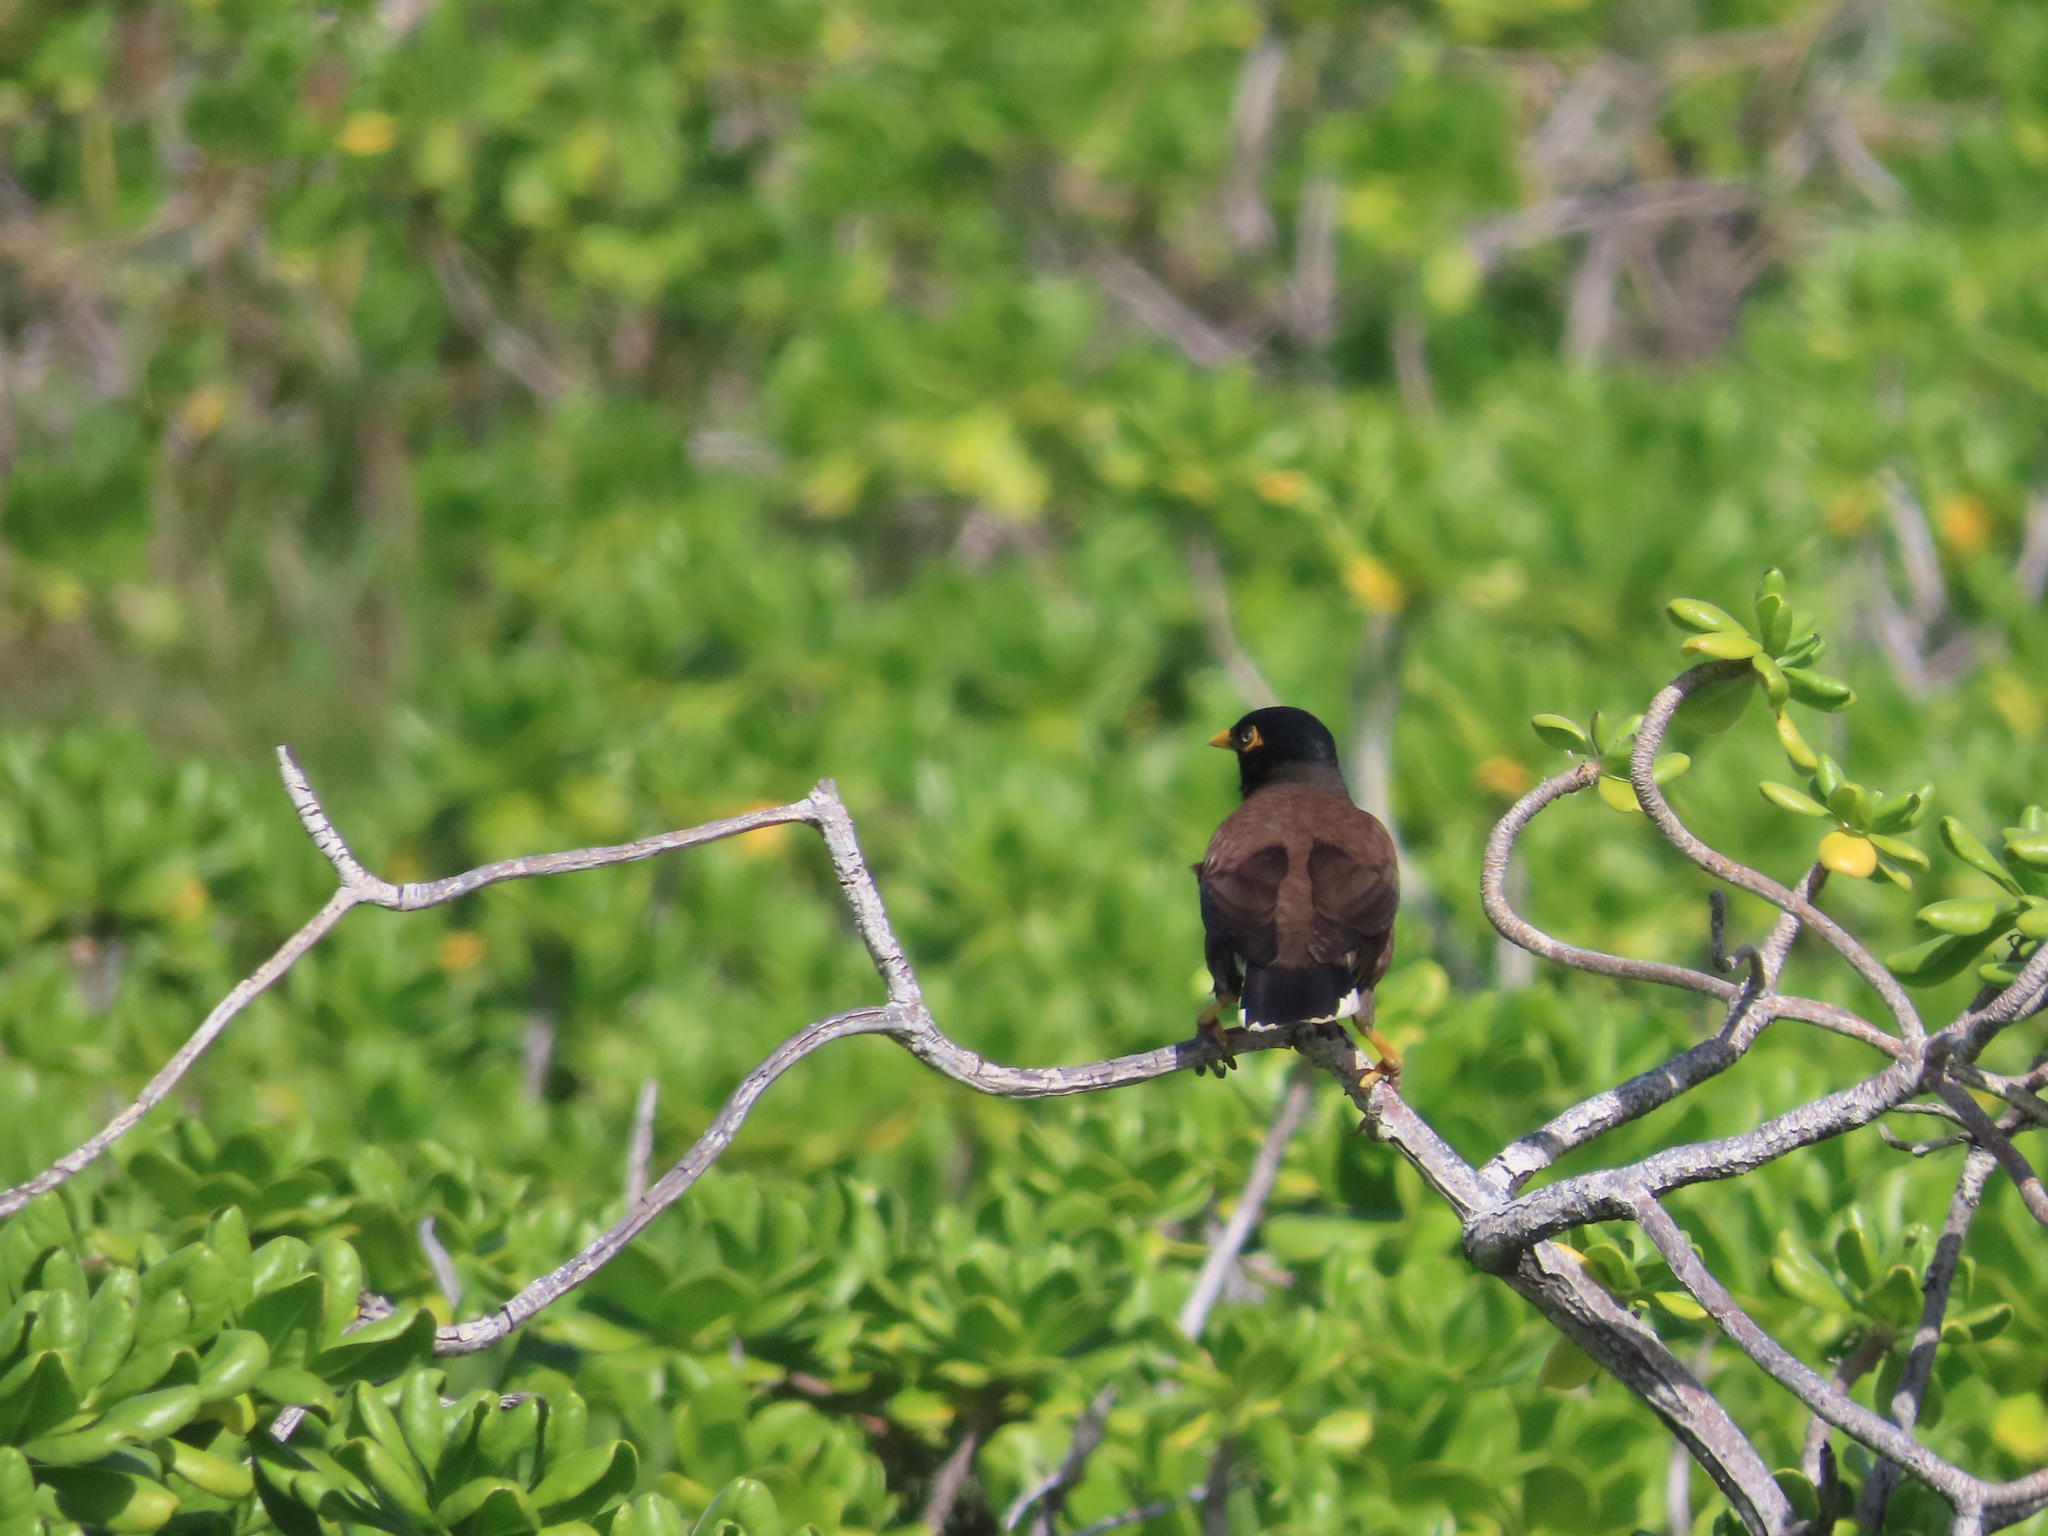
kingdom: Animalia
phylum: Chordata
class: Aves
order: Passeriformes
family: Sturnidae
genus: Acridotheres
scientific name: Acridotheres tristis
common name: Common myna
